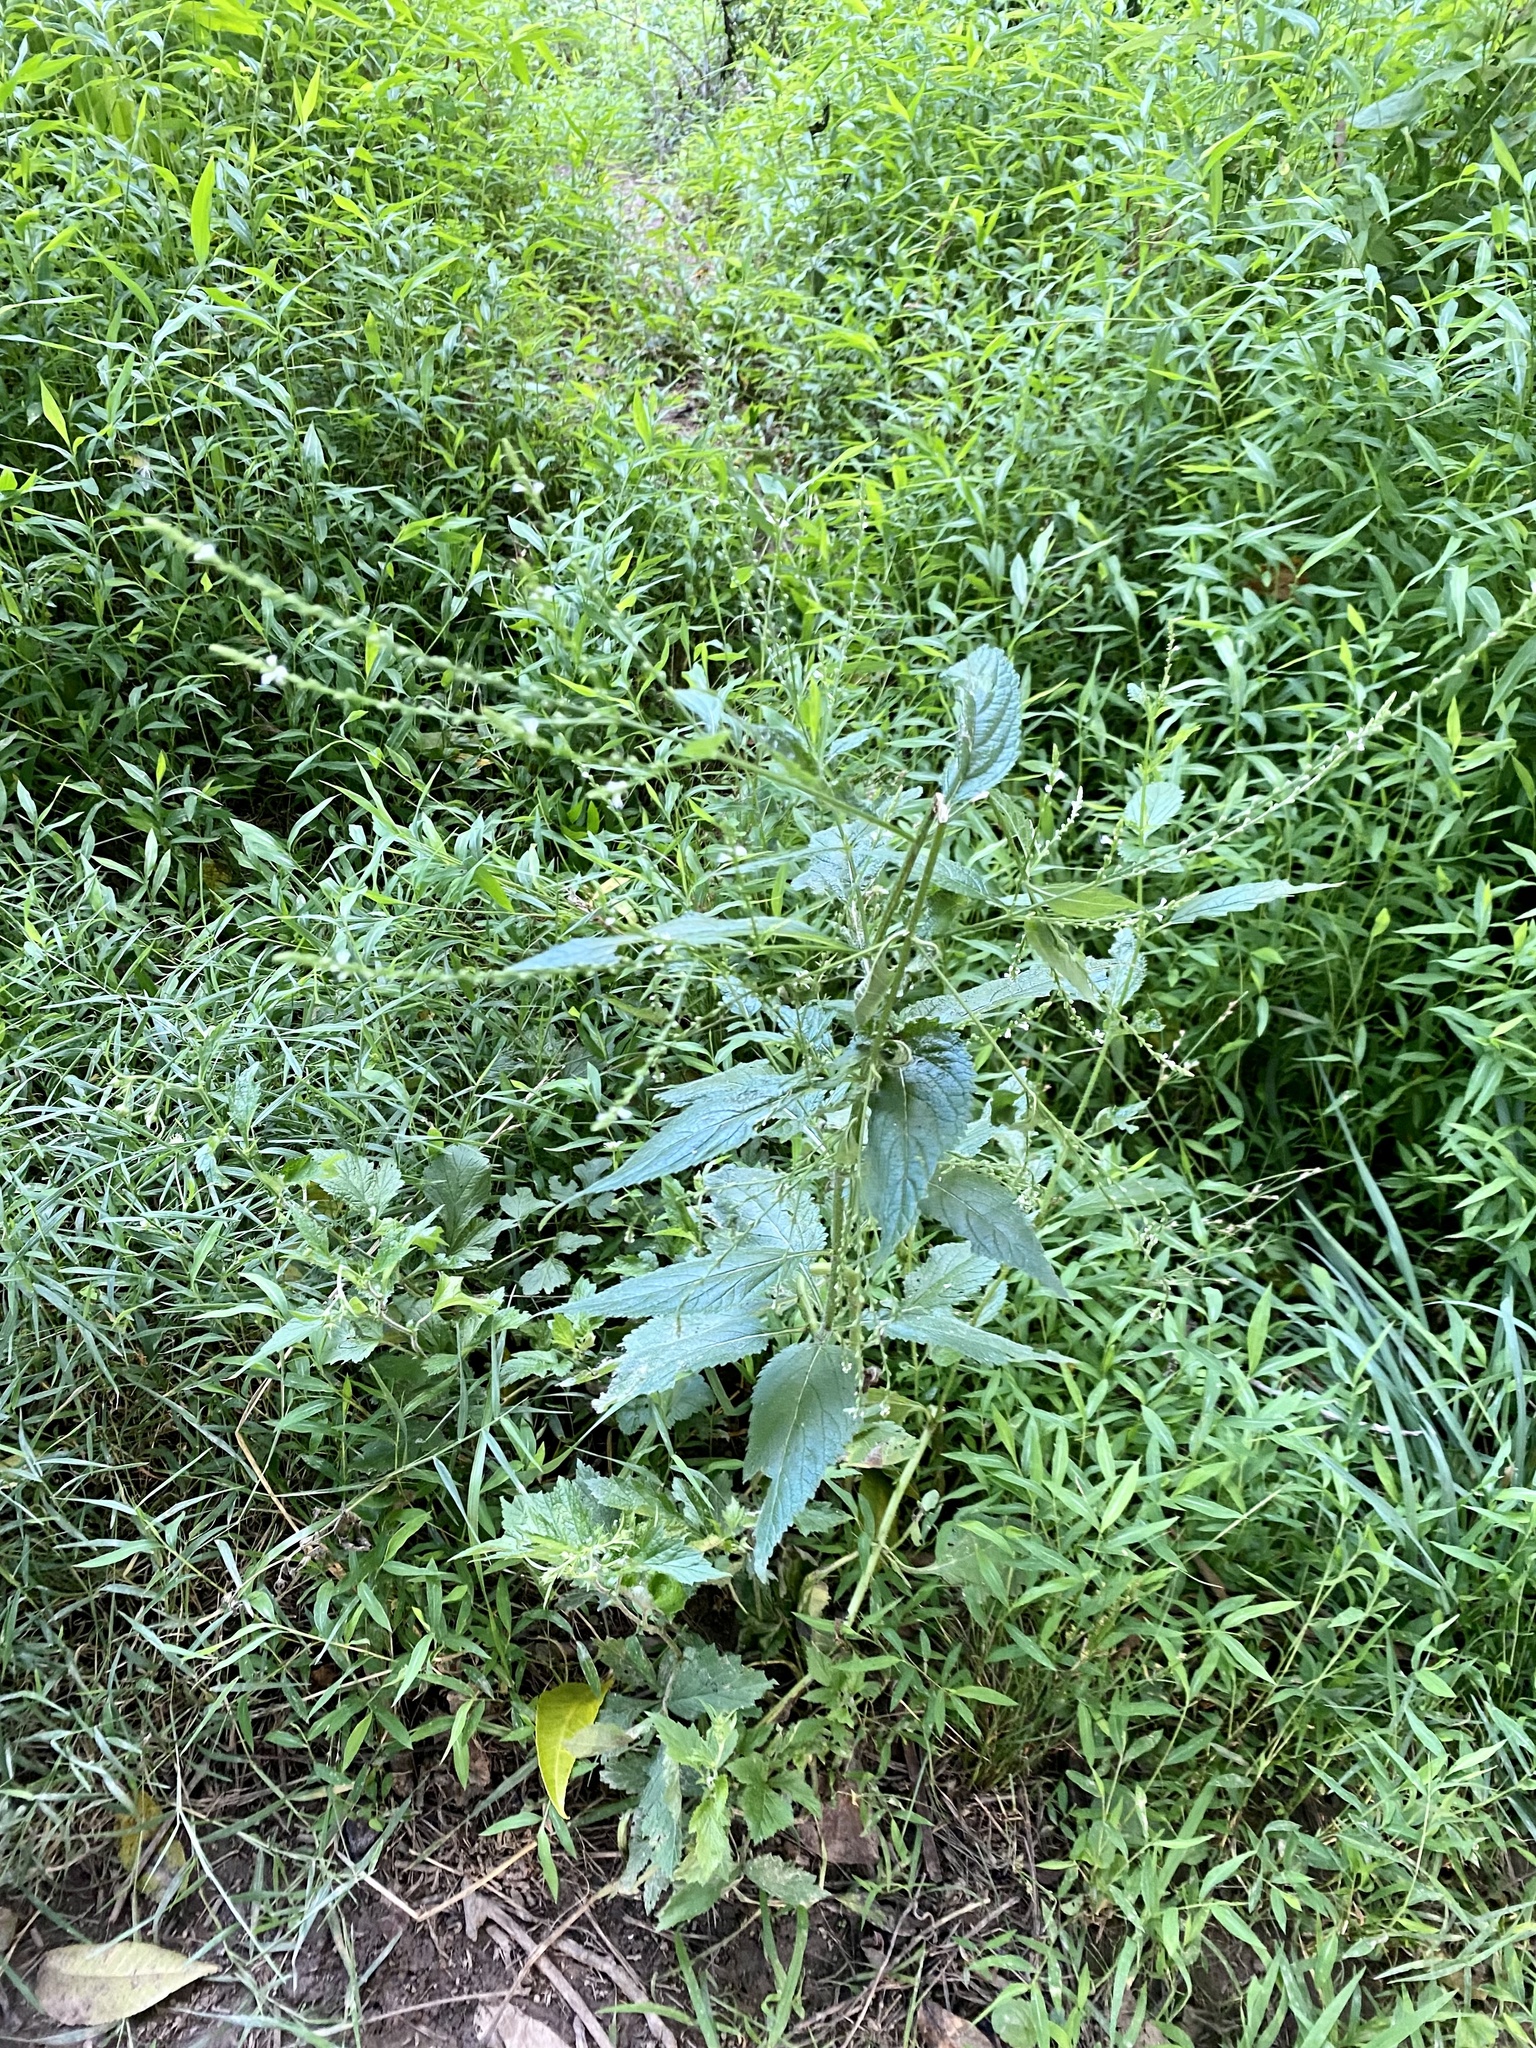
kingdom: Plantae
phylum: Tracheophyta
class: Magnoliopsida
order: Lamiales
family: Verbenaceae
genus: Verbena
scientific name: Verbena urticifolia
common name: Nettle-leaved vervain
